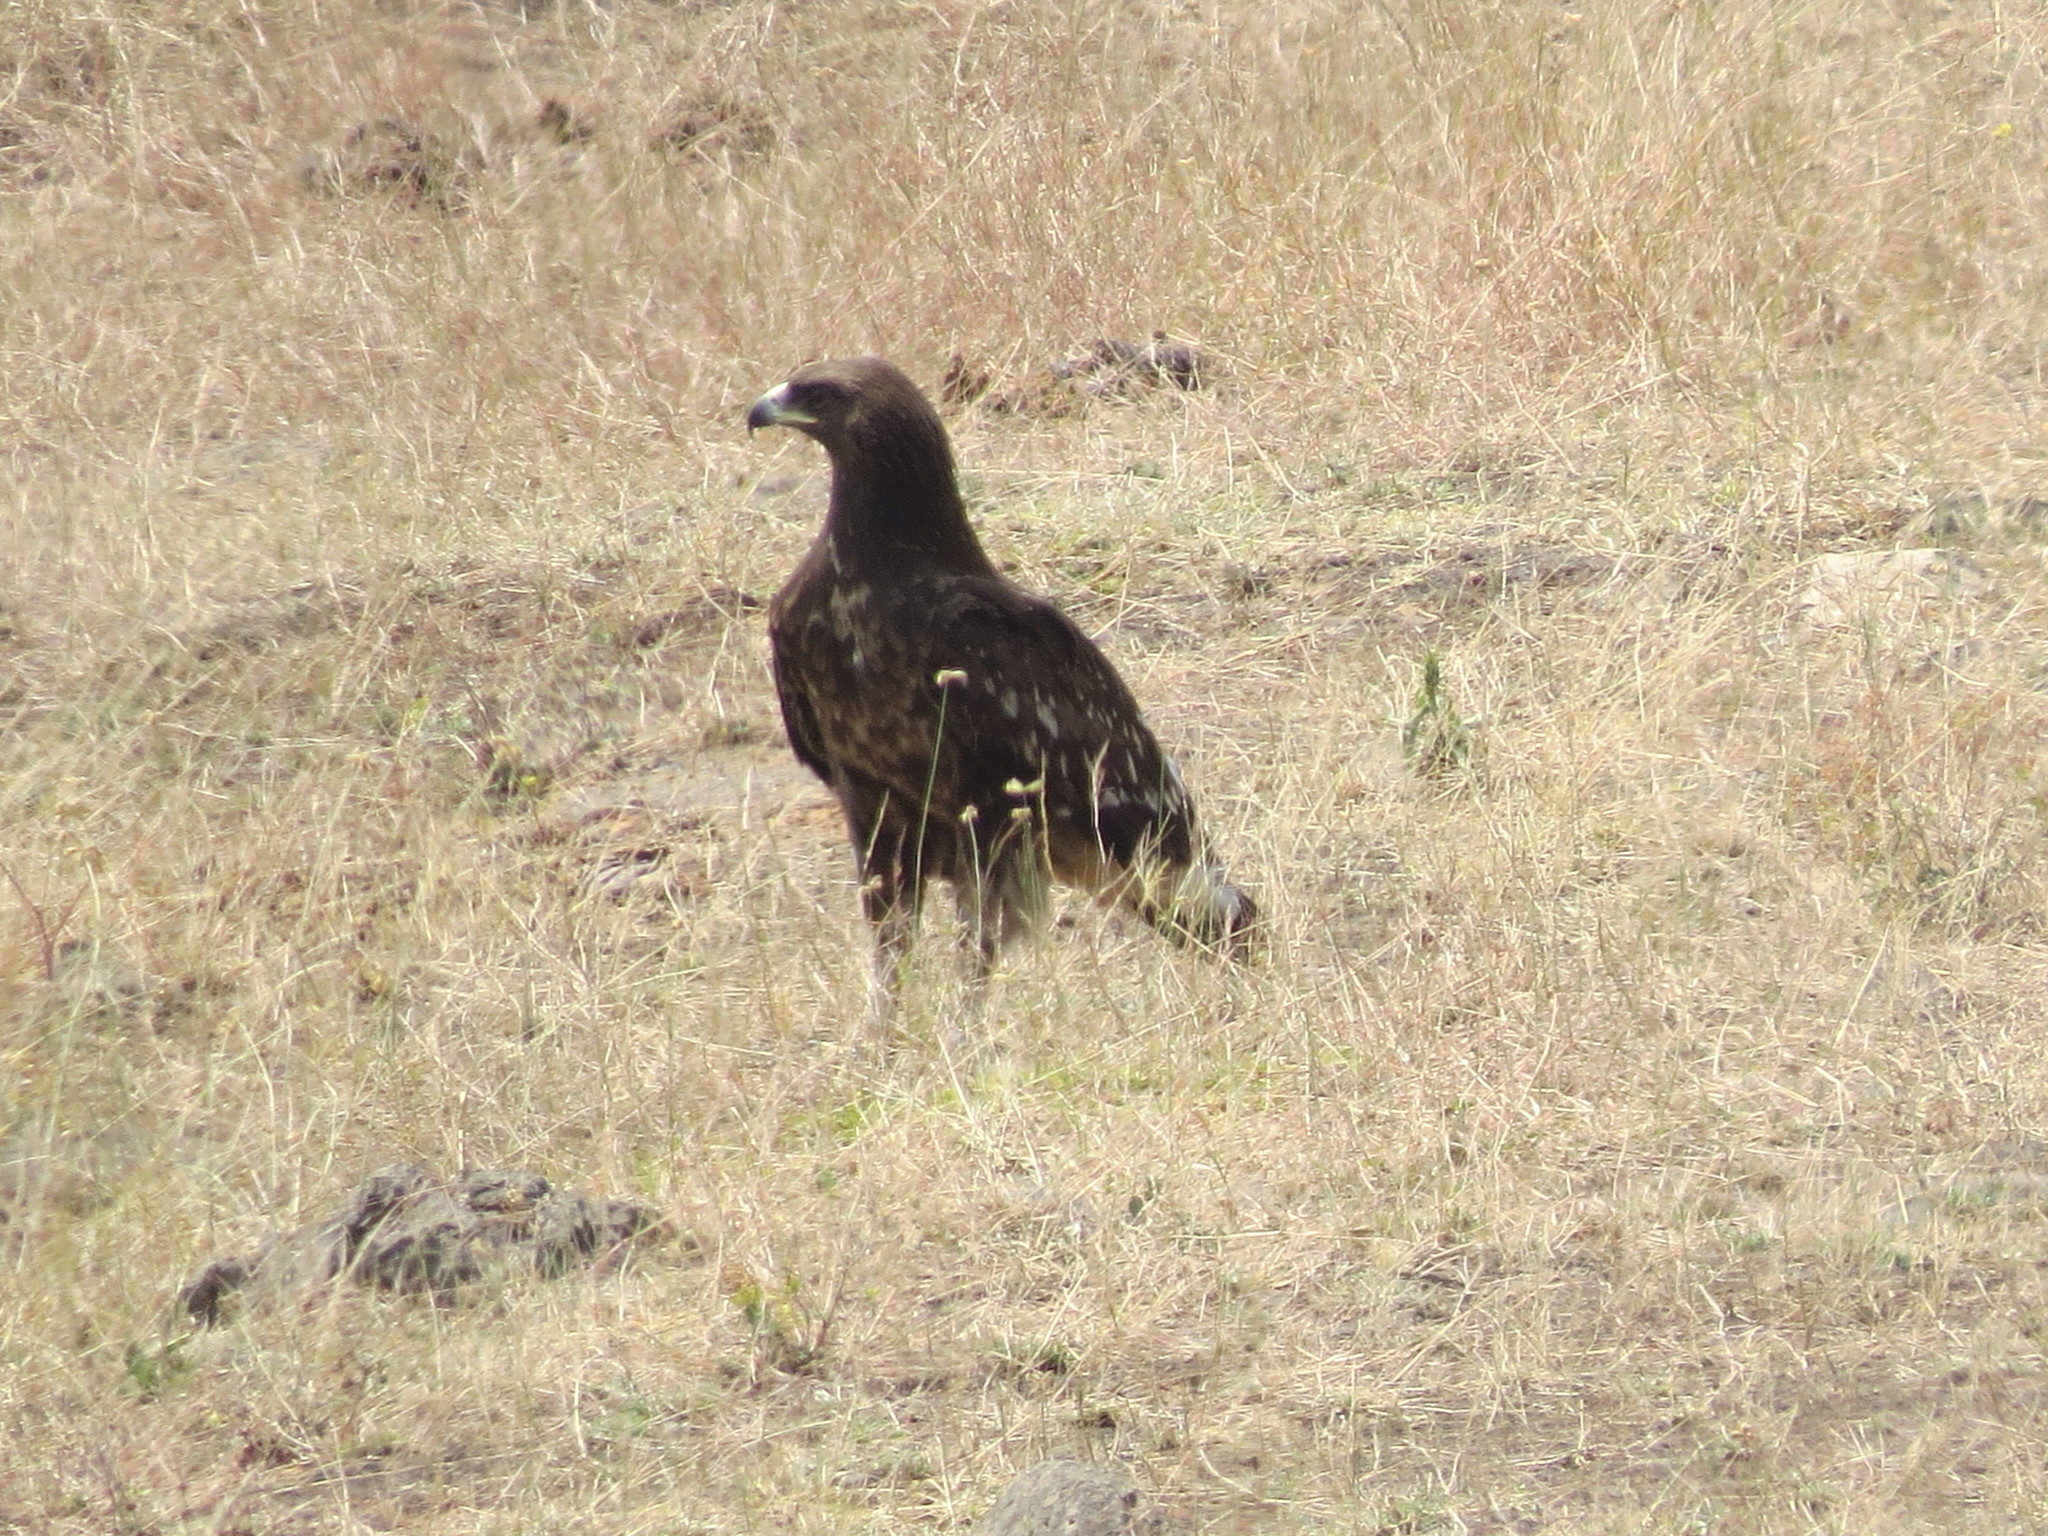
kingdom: Animalia
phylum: Chordata
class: Aves
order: Accipitriformes
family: Accipitridae
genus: Aquila
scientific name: Aquila clanga
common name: Greater spotted eagle
